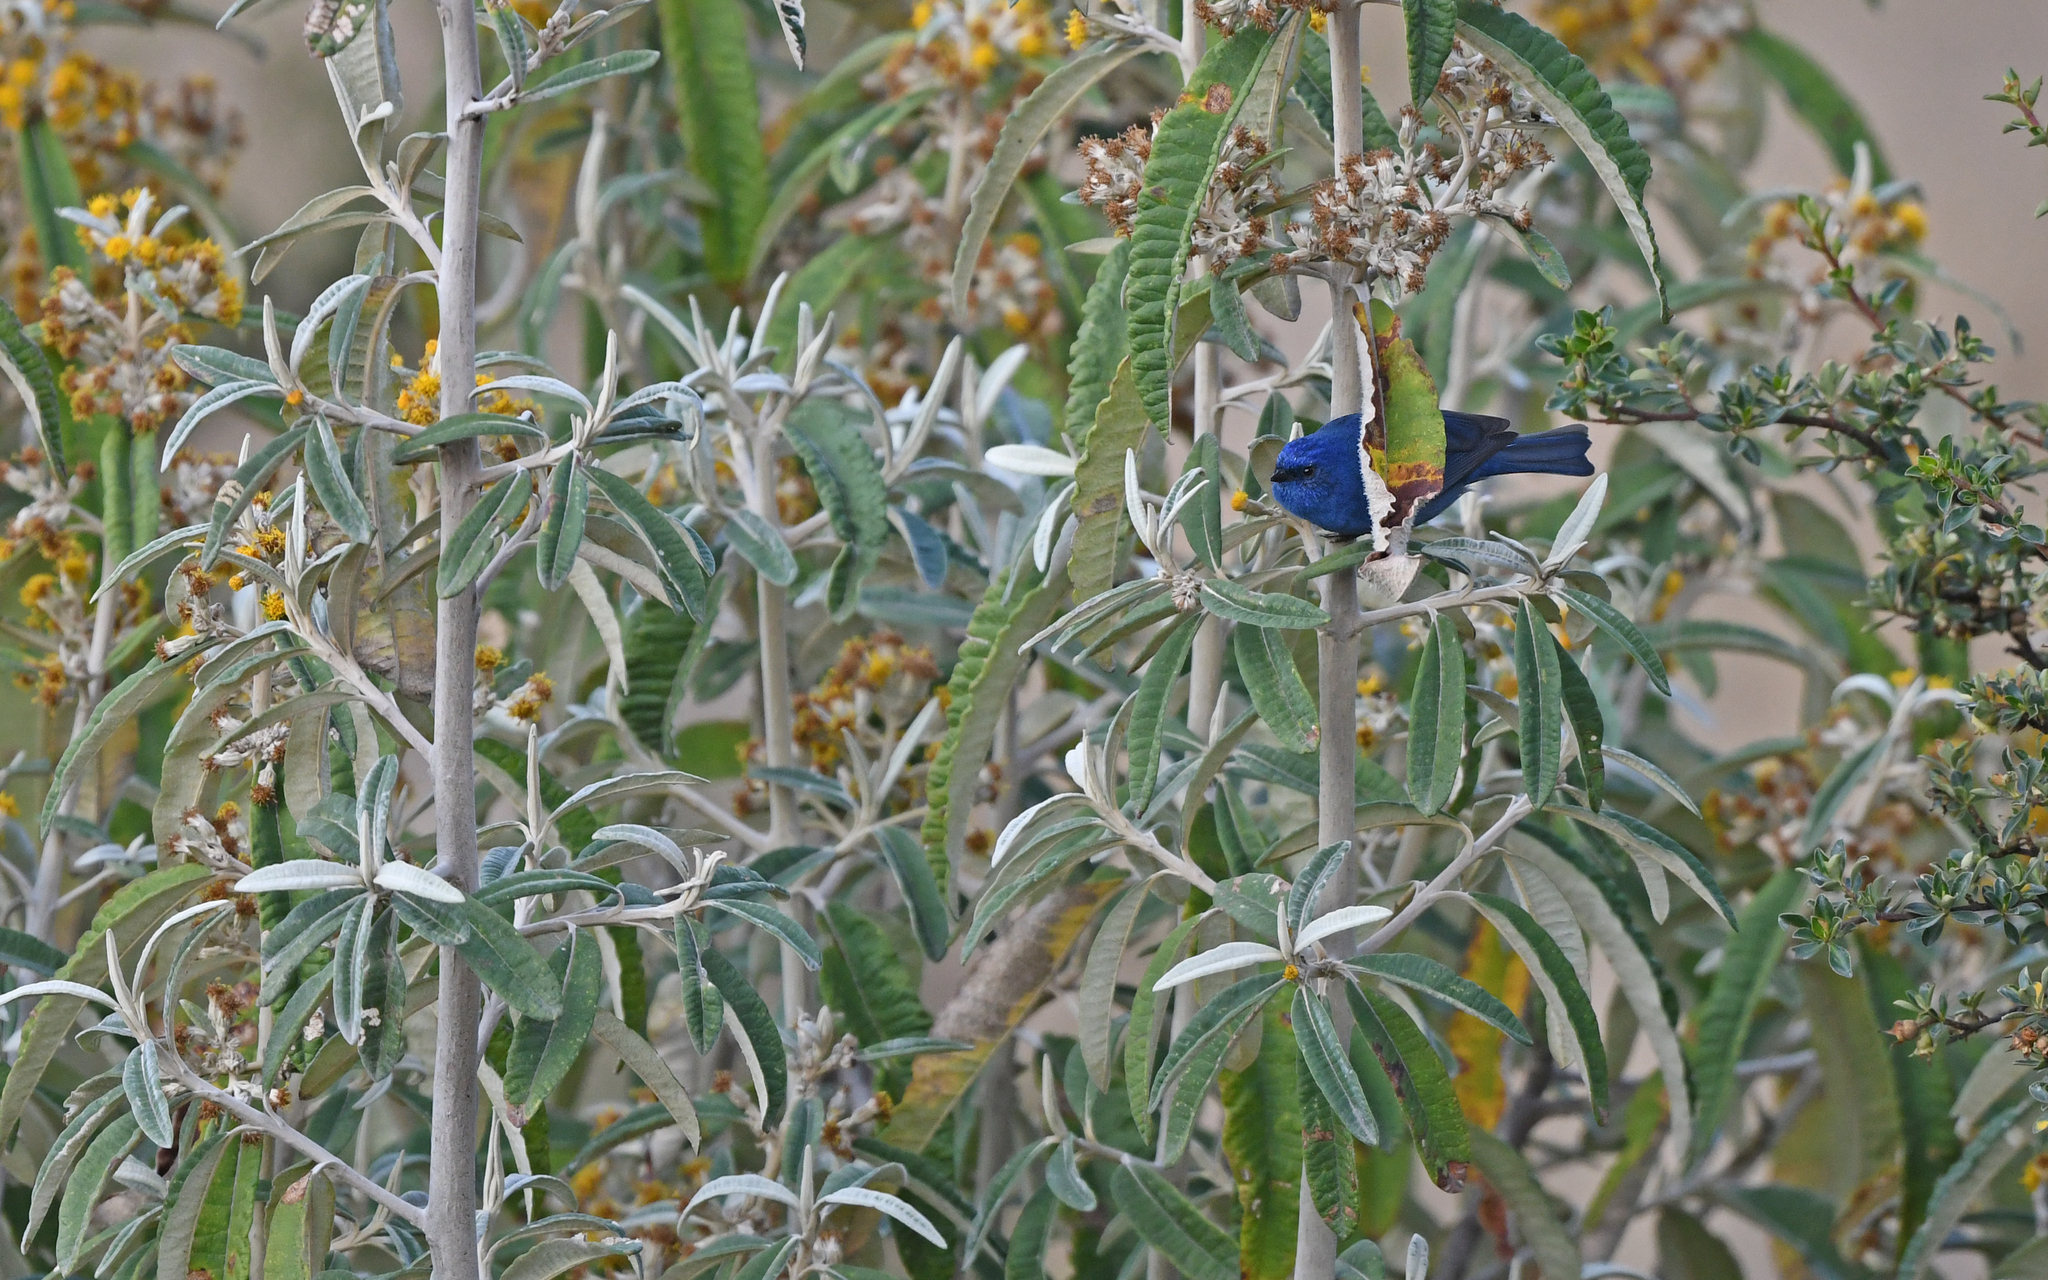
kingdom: Animalia
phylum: Chordata
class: Aves
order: Passeriformes
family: Thraupidae
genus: Xenodacnis
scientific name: Xenodacnis parina
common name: Tit-like dacnis
